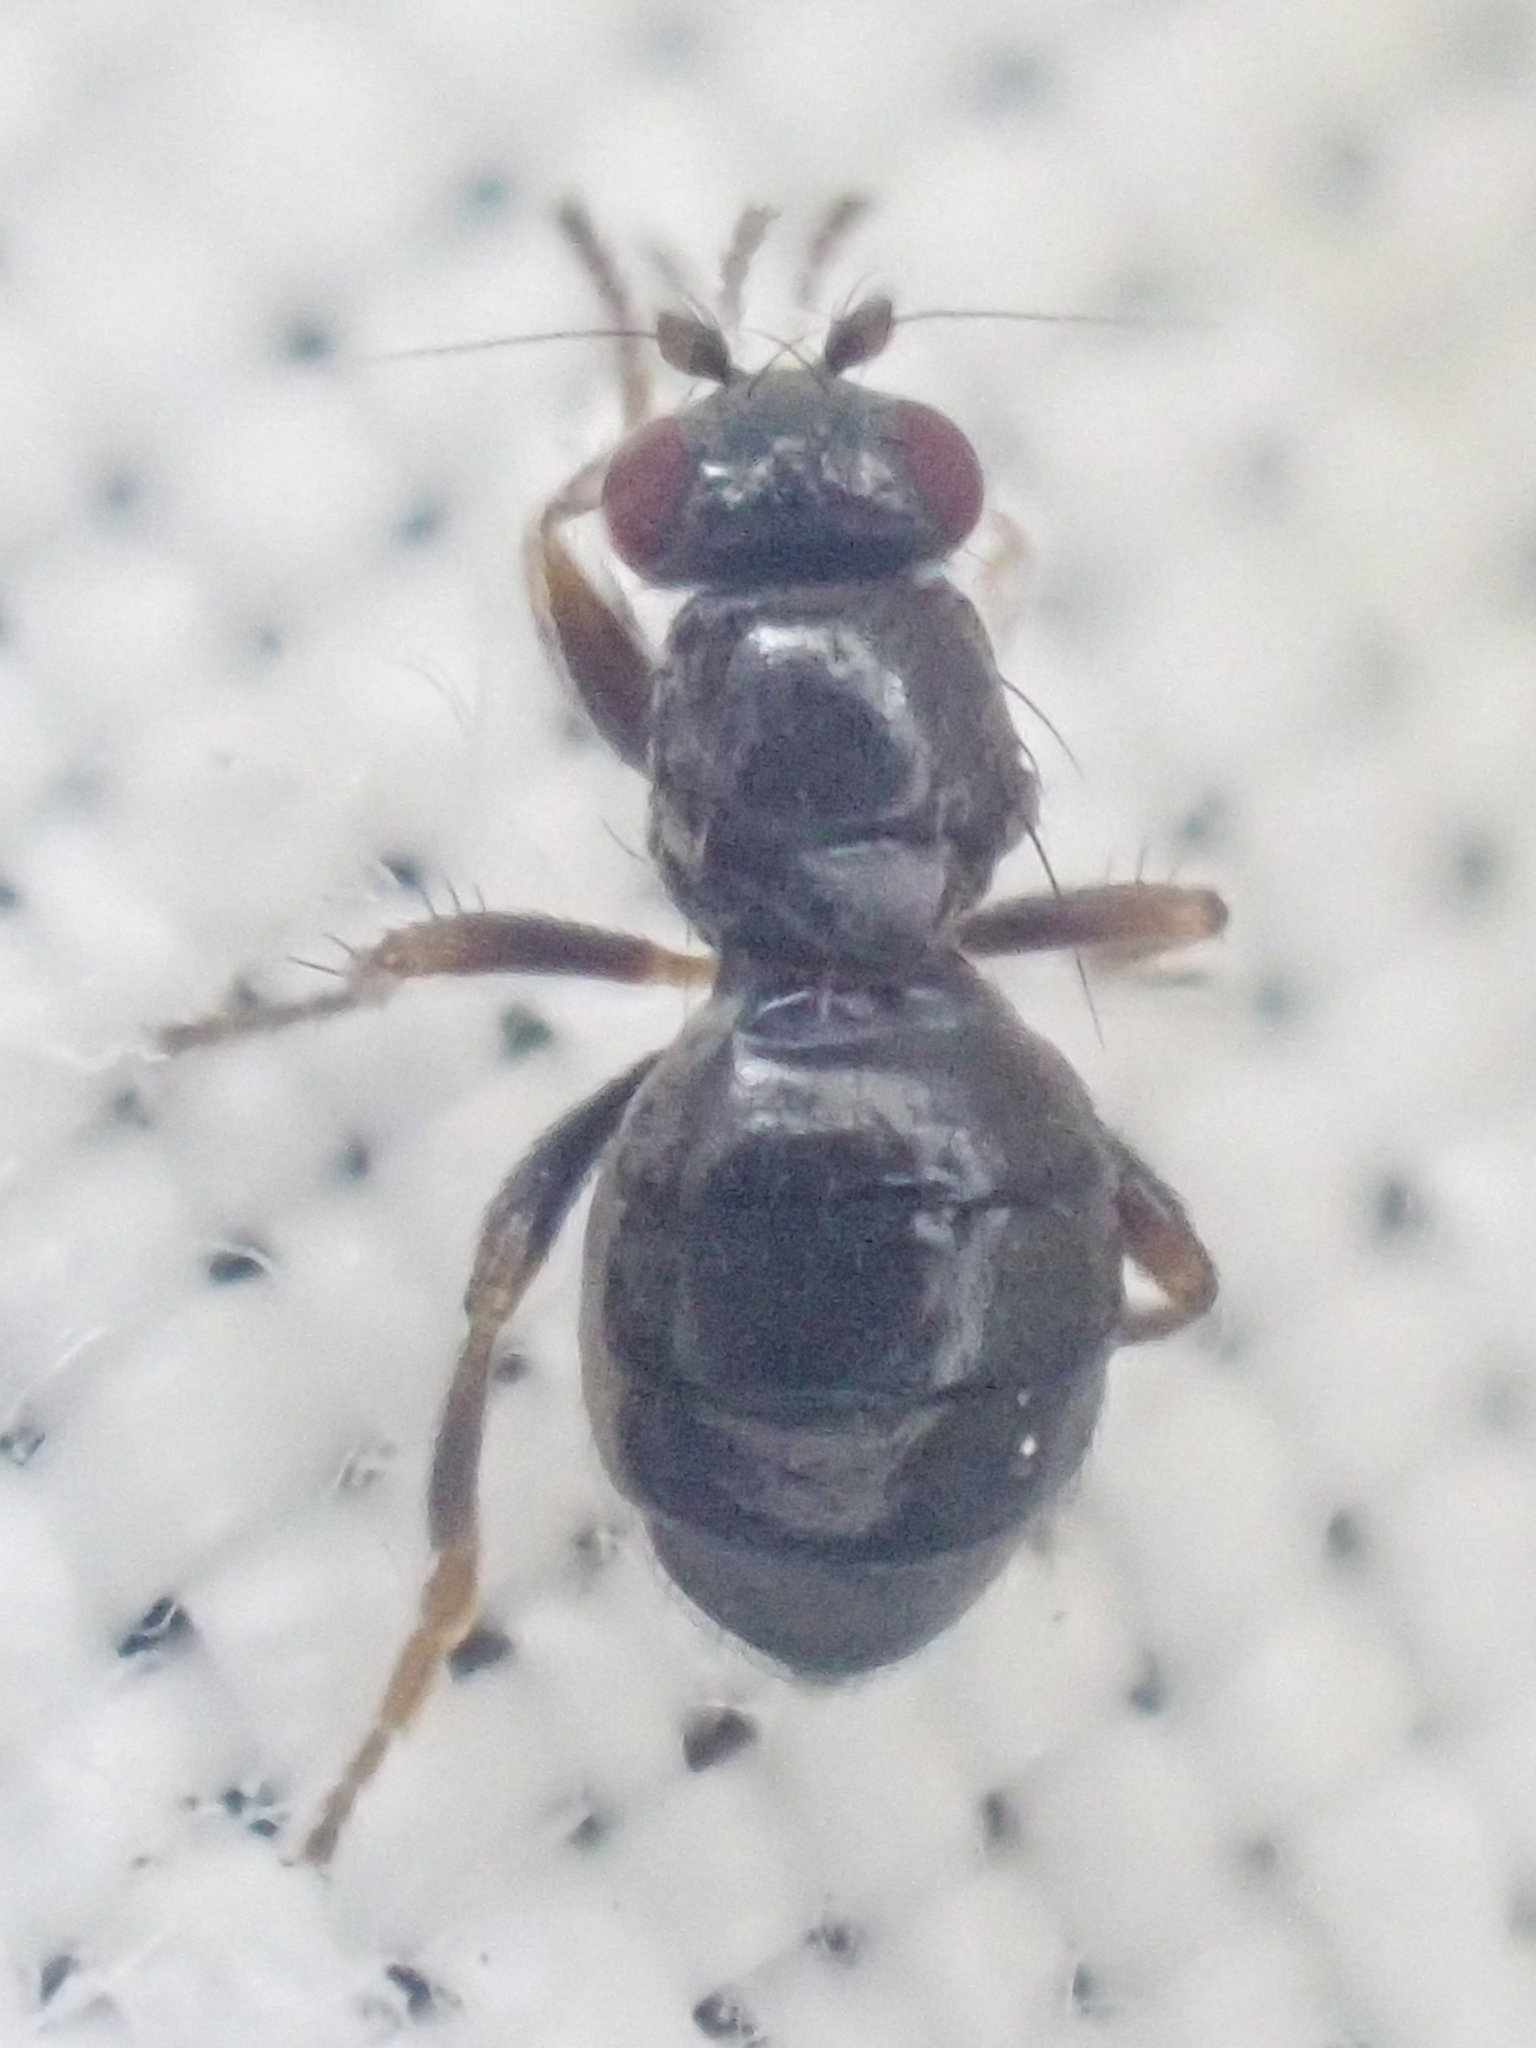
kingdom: Animalia
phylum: Arthropoda
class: Insecta
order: Diptera
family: Sphaeroceridae
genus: Aptilotus
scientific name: Aptilotus borealis
